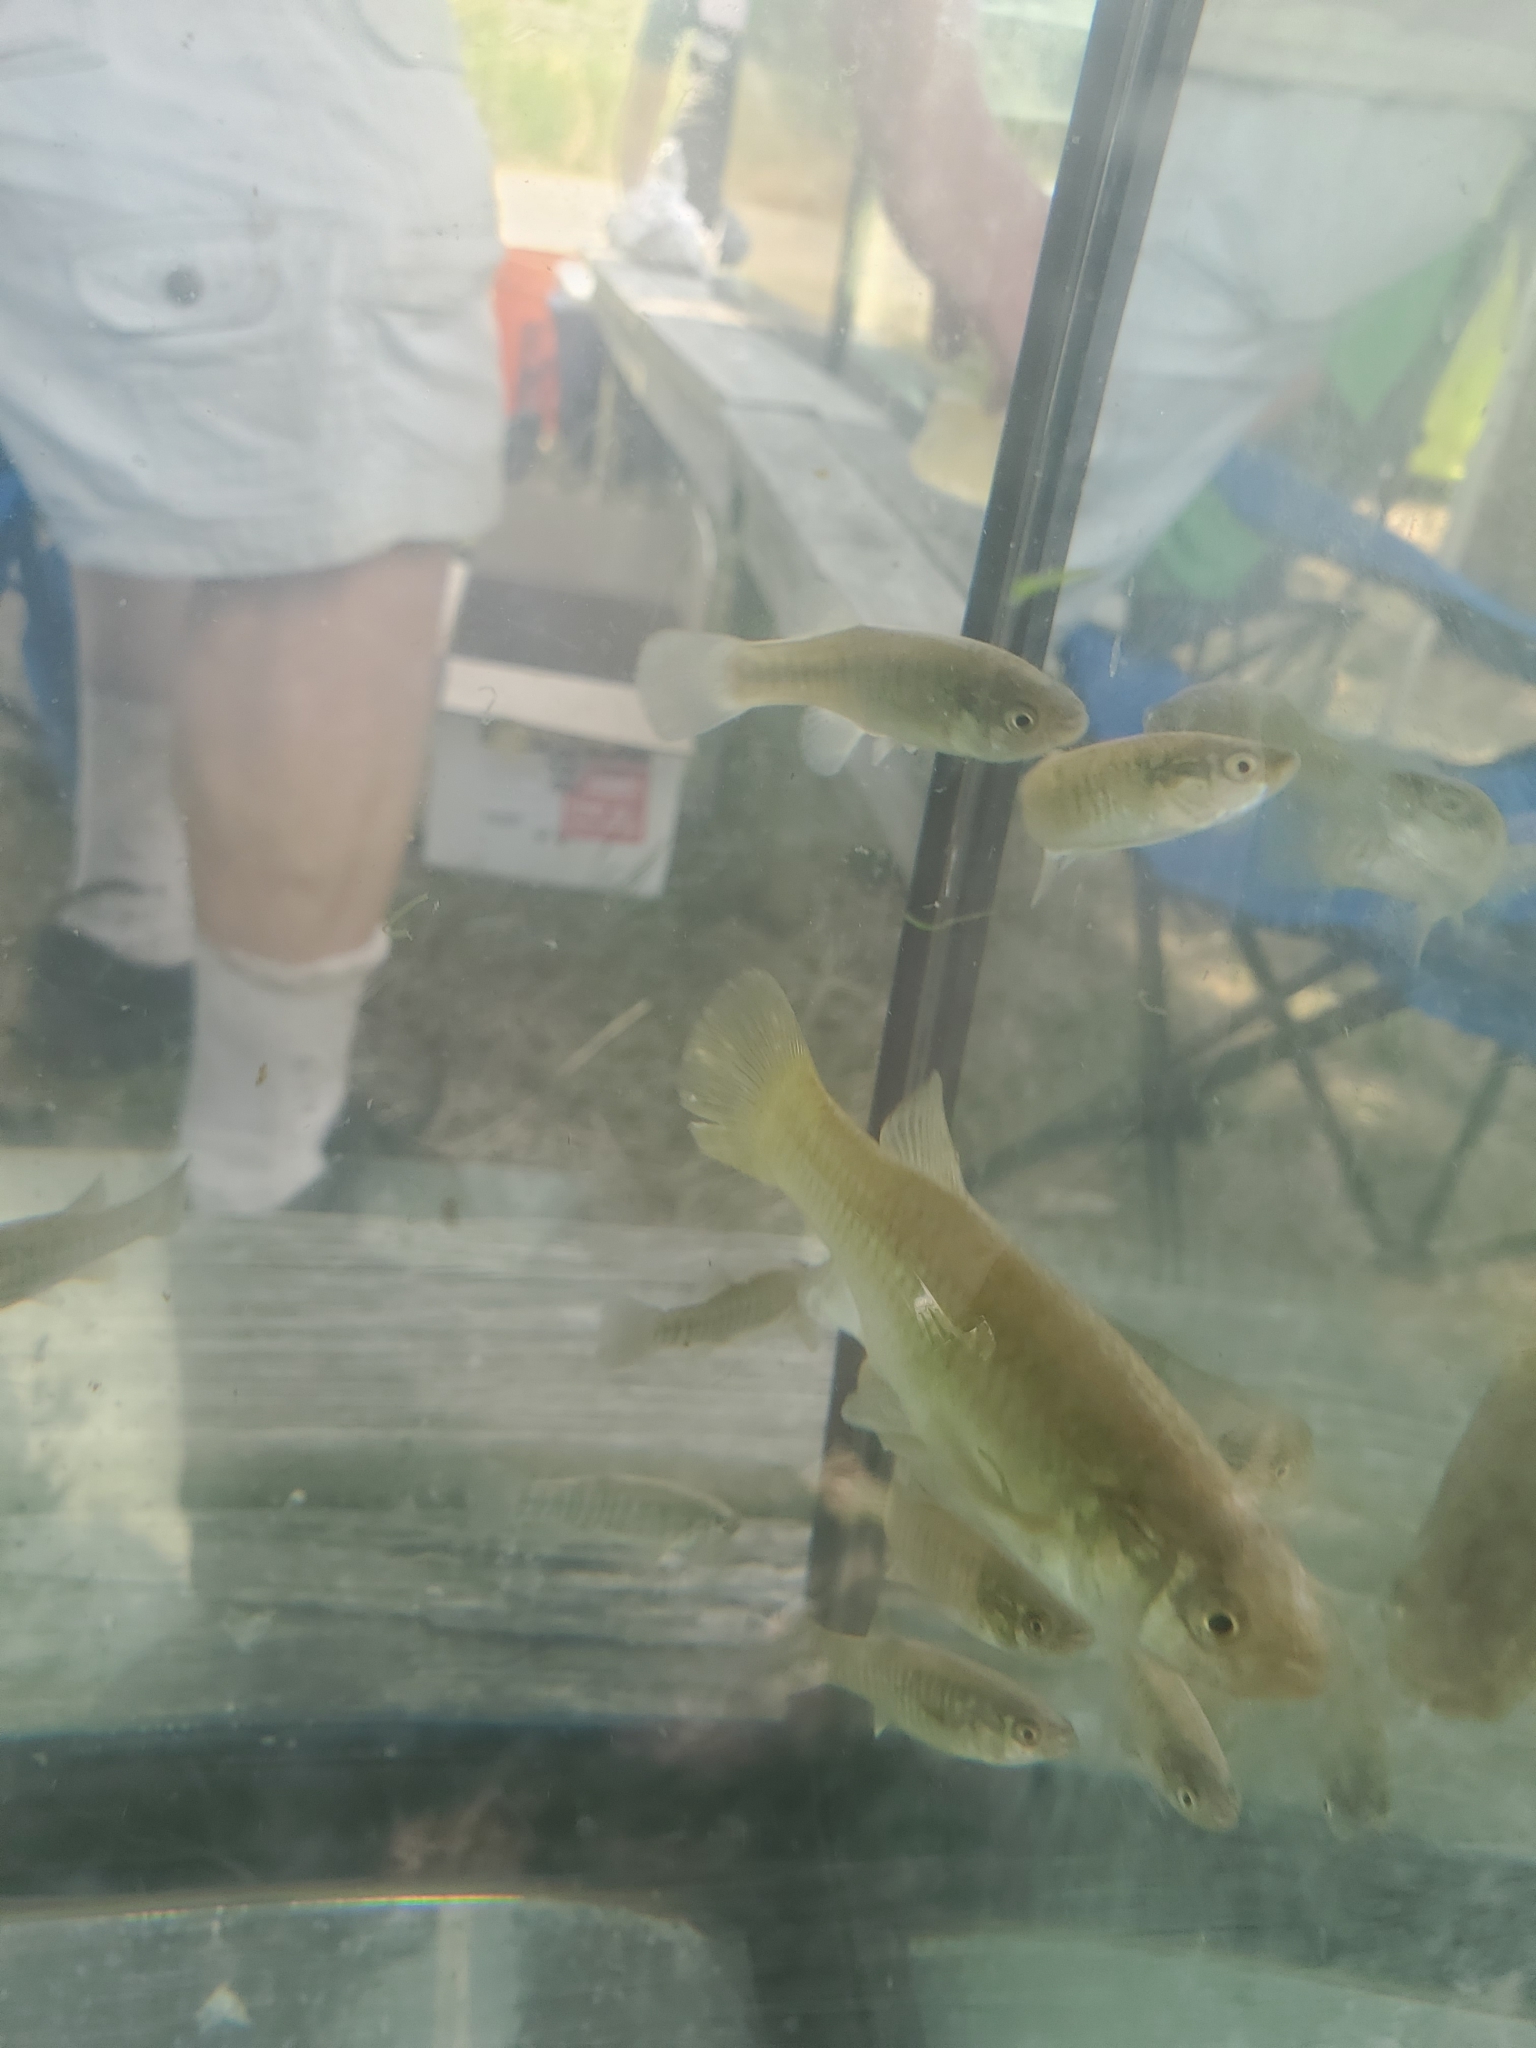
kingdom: Animalia
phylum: Chordata
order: Cyprinodontiformes
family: Fundulidae
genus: Fundulus
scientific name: Fundulus heteroclitus
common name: Mummichog
